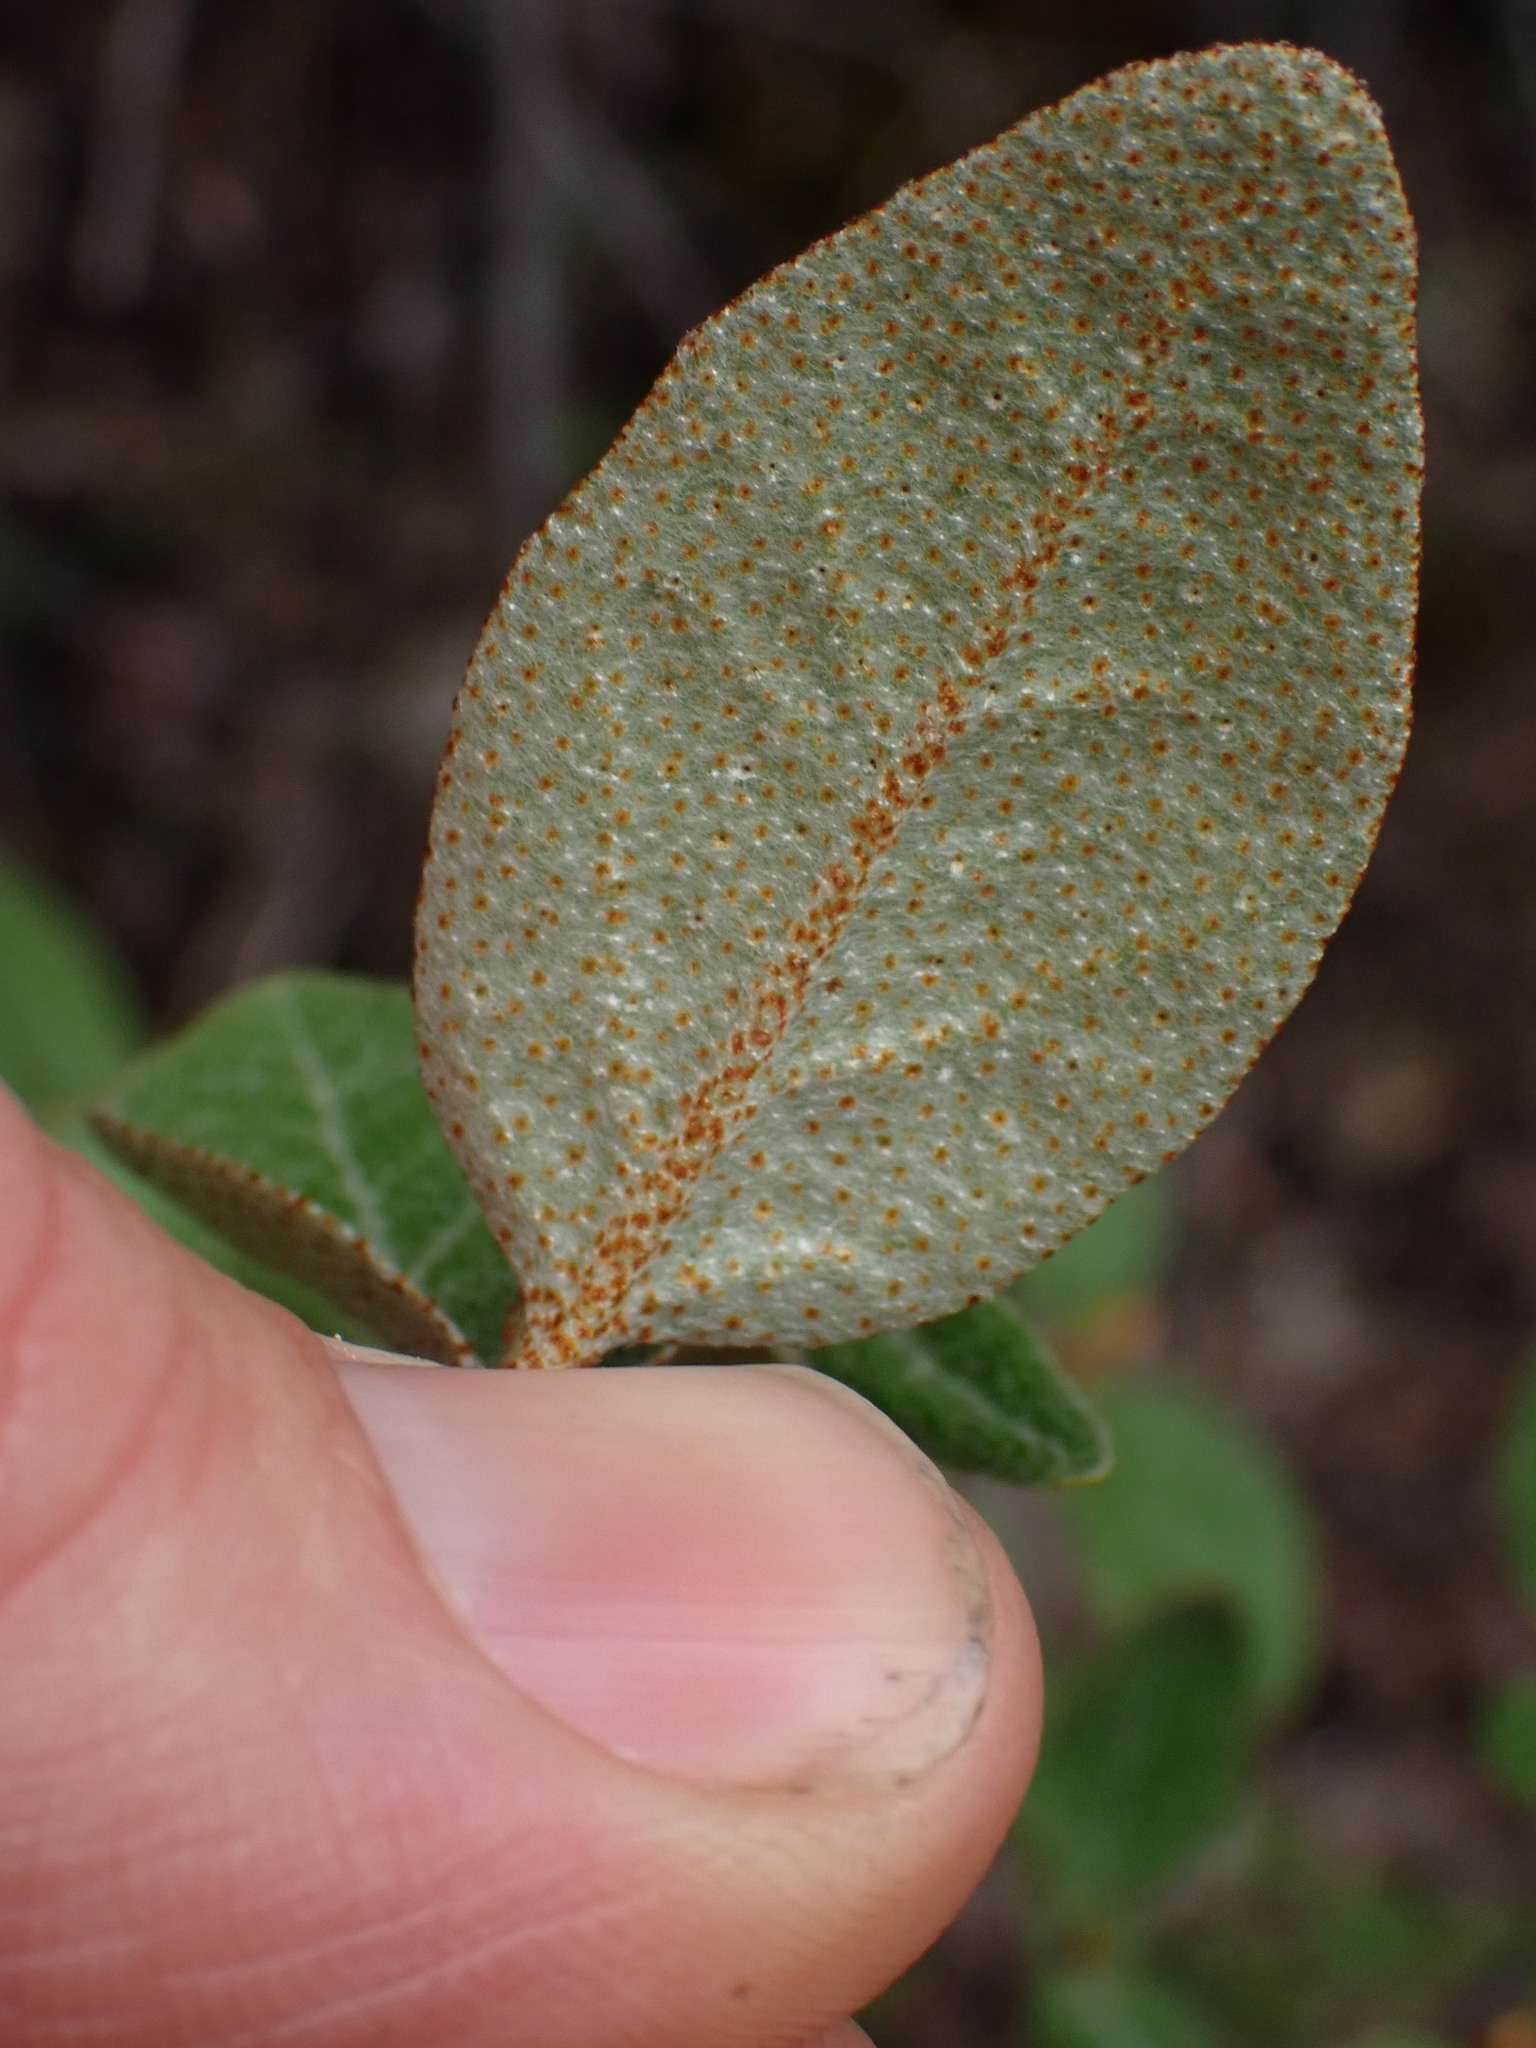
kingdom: Plantae
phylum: Tracheophyta
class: Magnoliopsida
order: Rosales
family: Elaeagnaceae
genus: Shepherdia
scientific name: Shepherdia canadensis
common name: Soapberry
